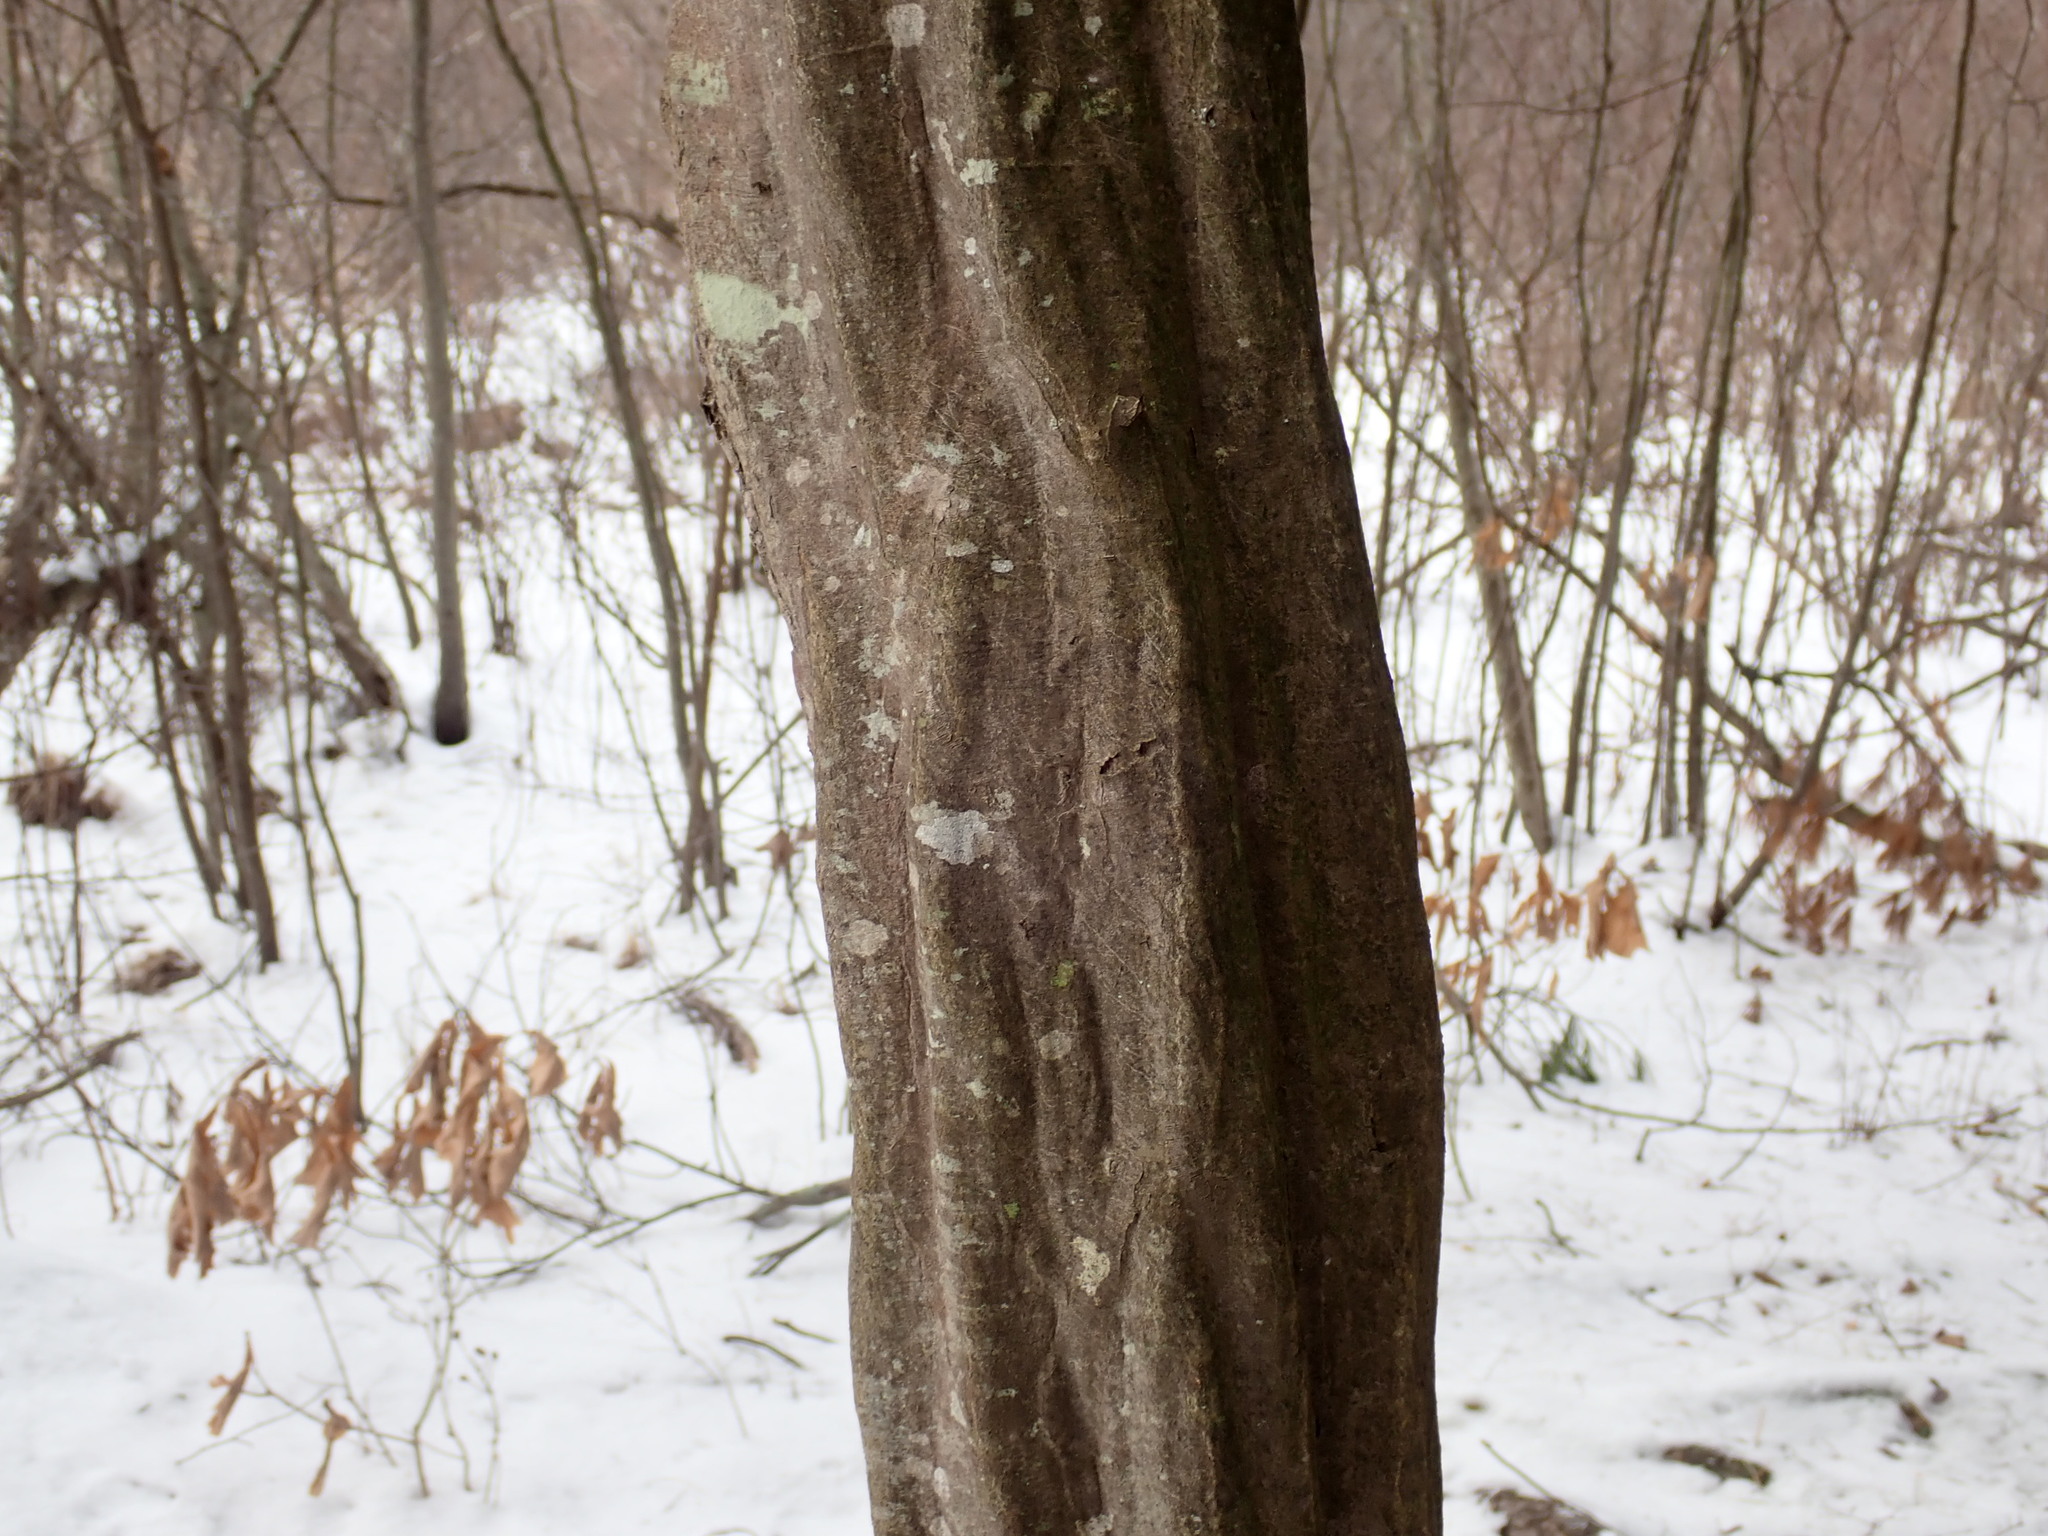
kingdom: Plantae
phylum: Tracheophyta
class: Magnoliopsida
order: Fagales
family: Betulaceae
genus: Carpinus
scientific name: Carpinus caroliniana
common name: American hornbeam
